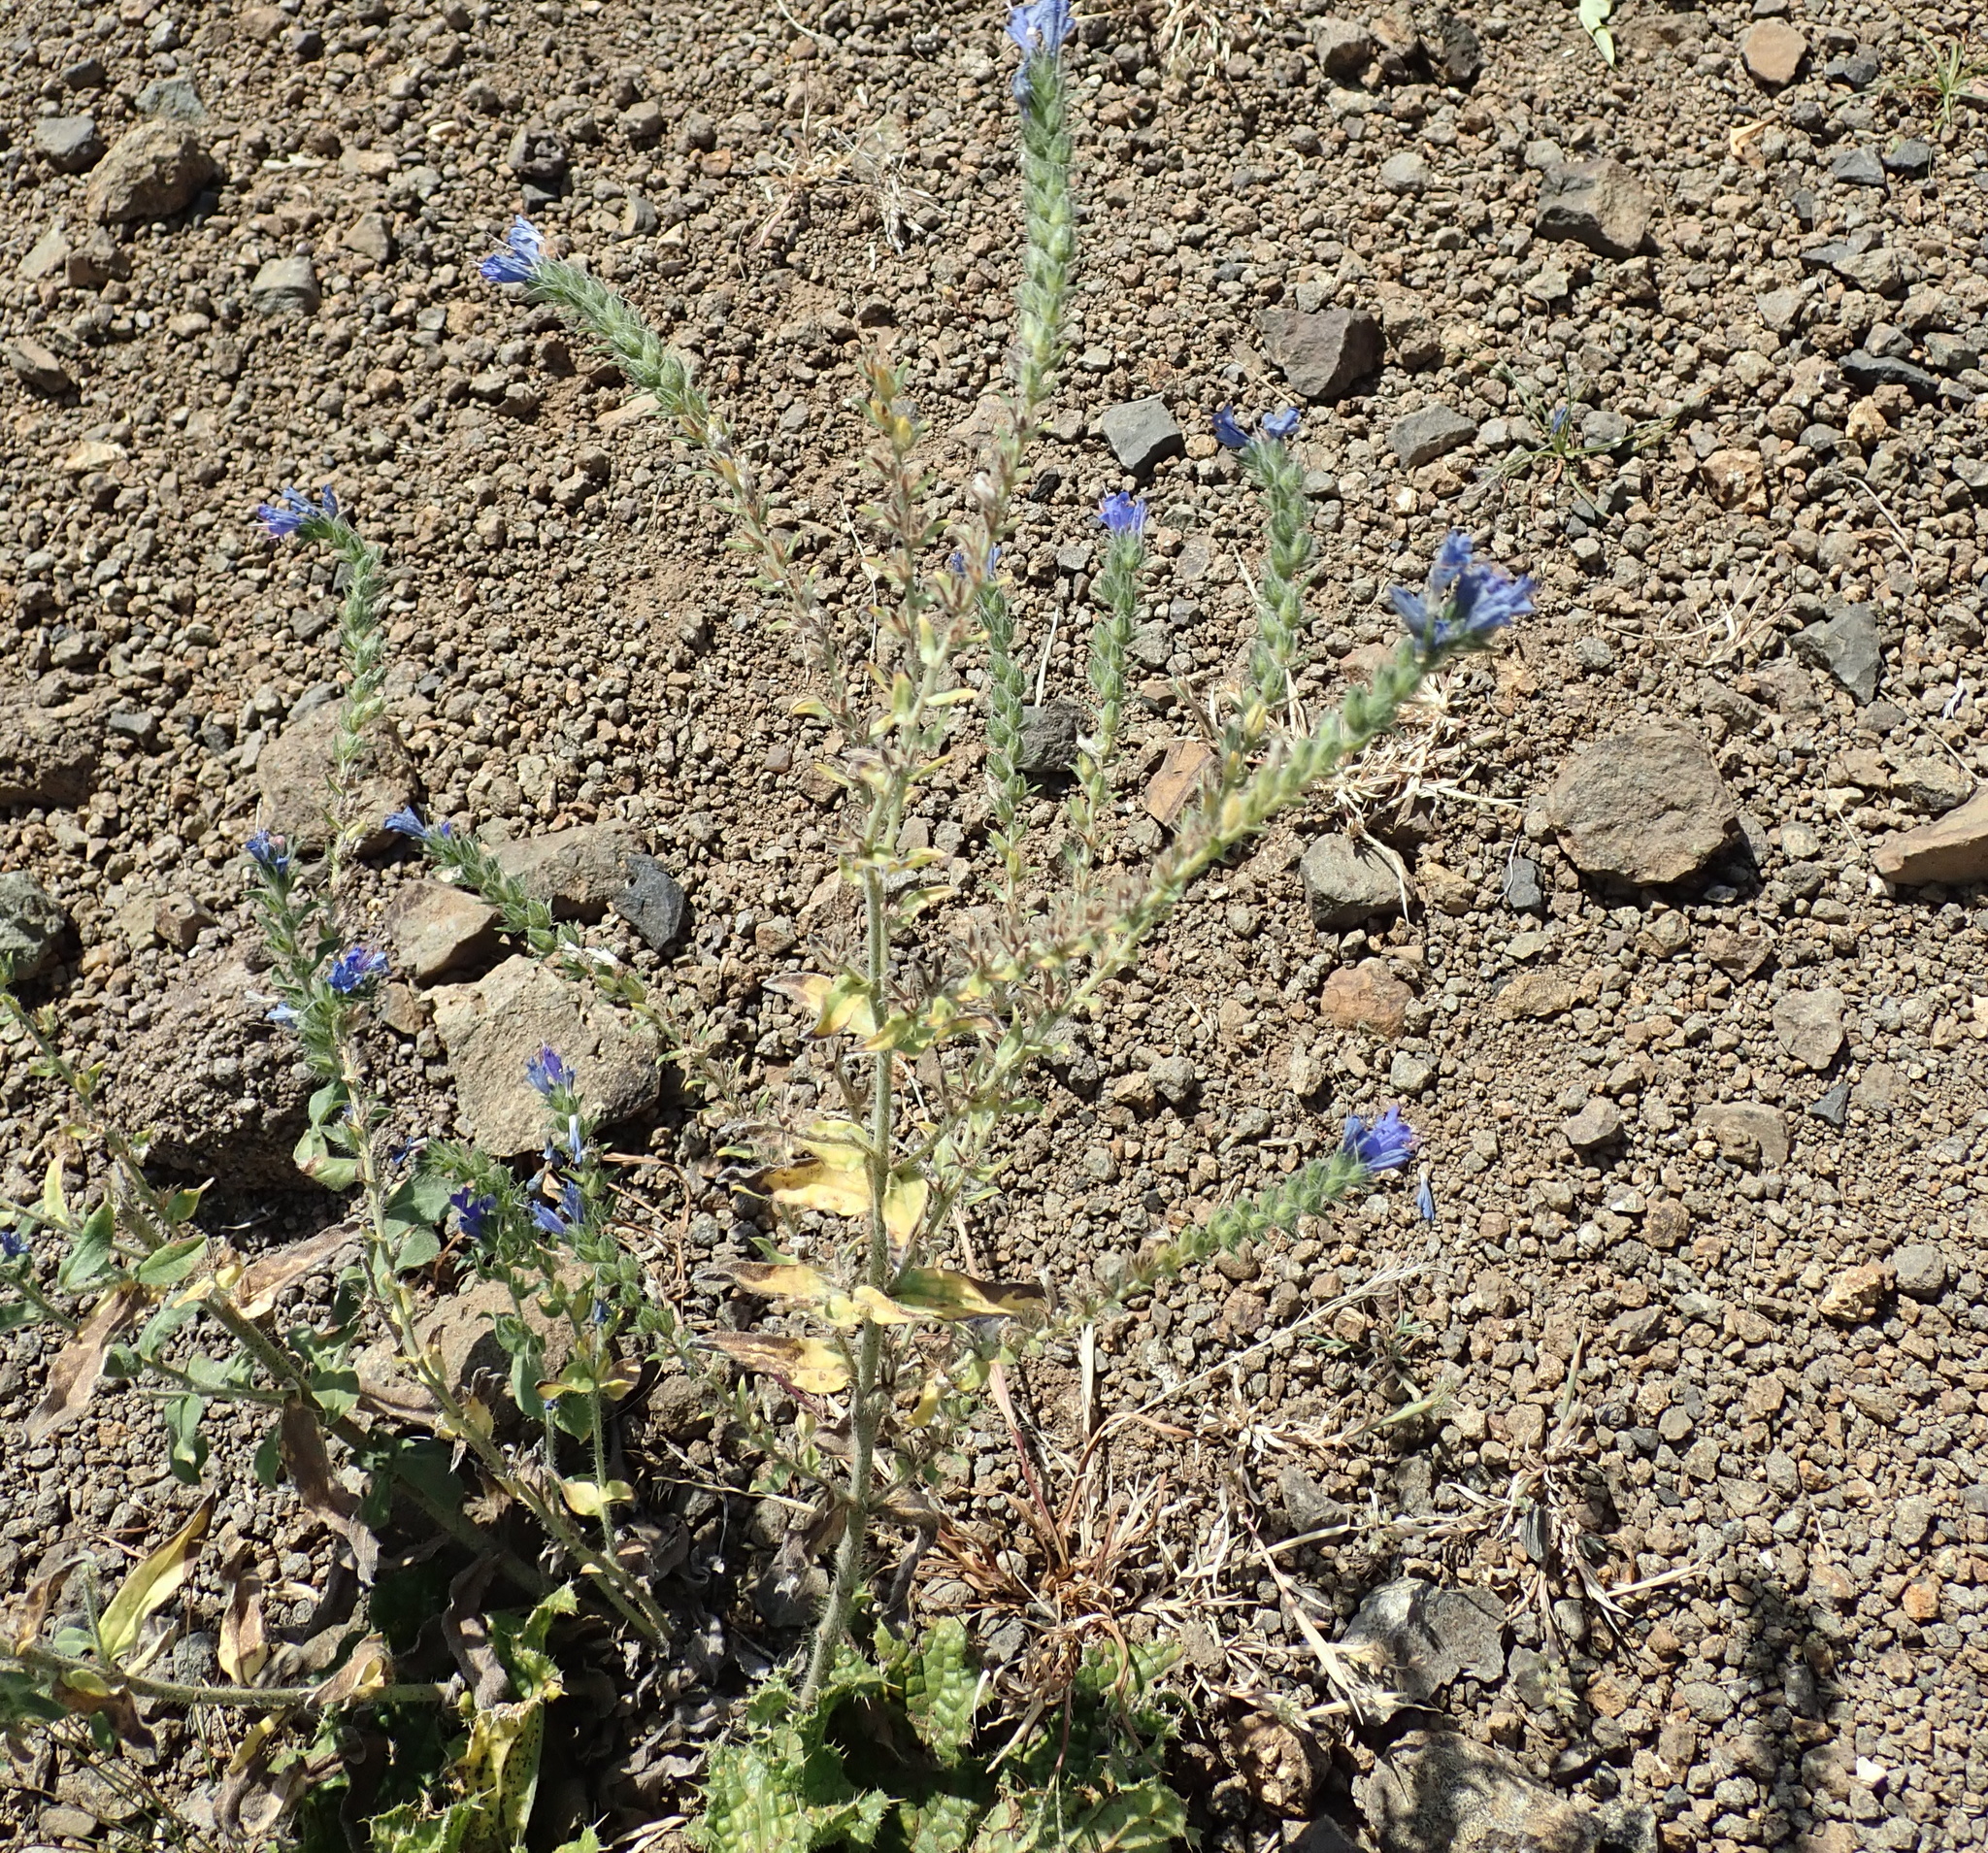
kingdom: Plantae
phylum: Tracheophyta
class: Magnoliopsida
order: Boraginales
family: Boraginaceae
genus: Echium
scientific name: Echium vulgare
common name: Common viper's bugloss
